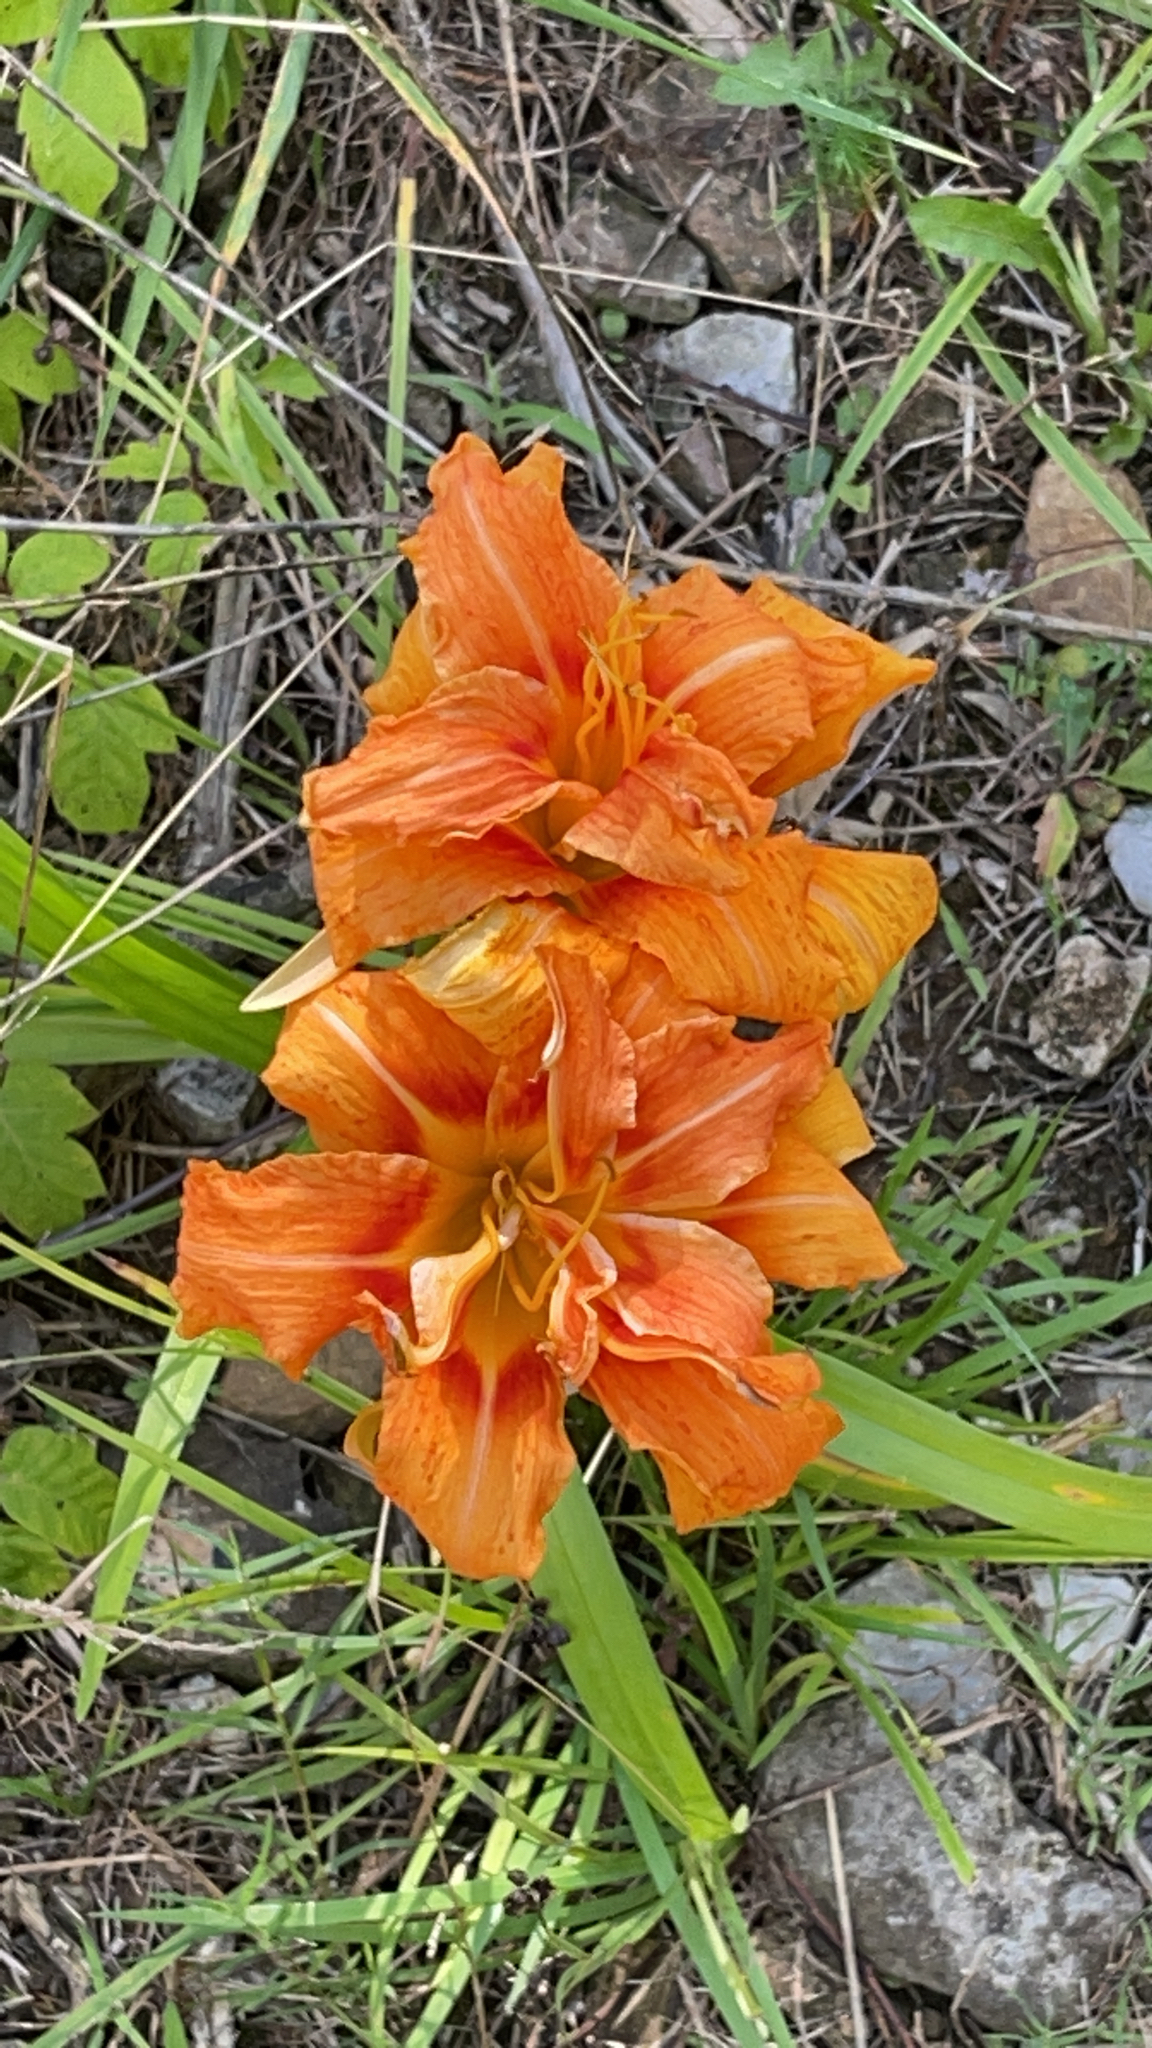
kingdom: Plantae
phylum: Tracheophyta
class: Liliopsida
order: Asparagales
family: Asphodelaceae
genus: Hemerocallis
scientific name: Hemerocallis fulva
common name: Orange day-lily
